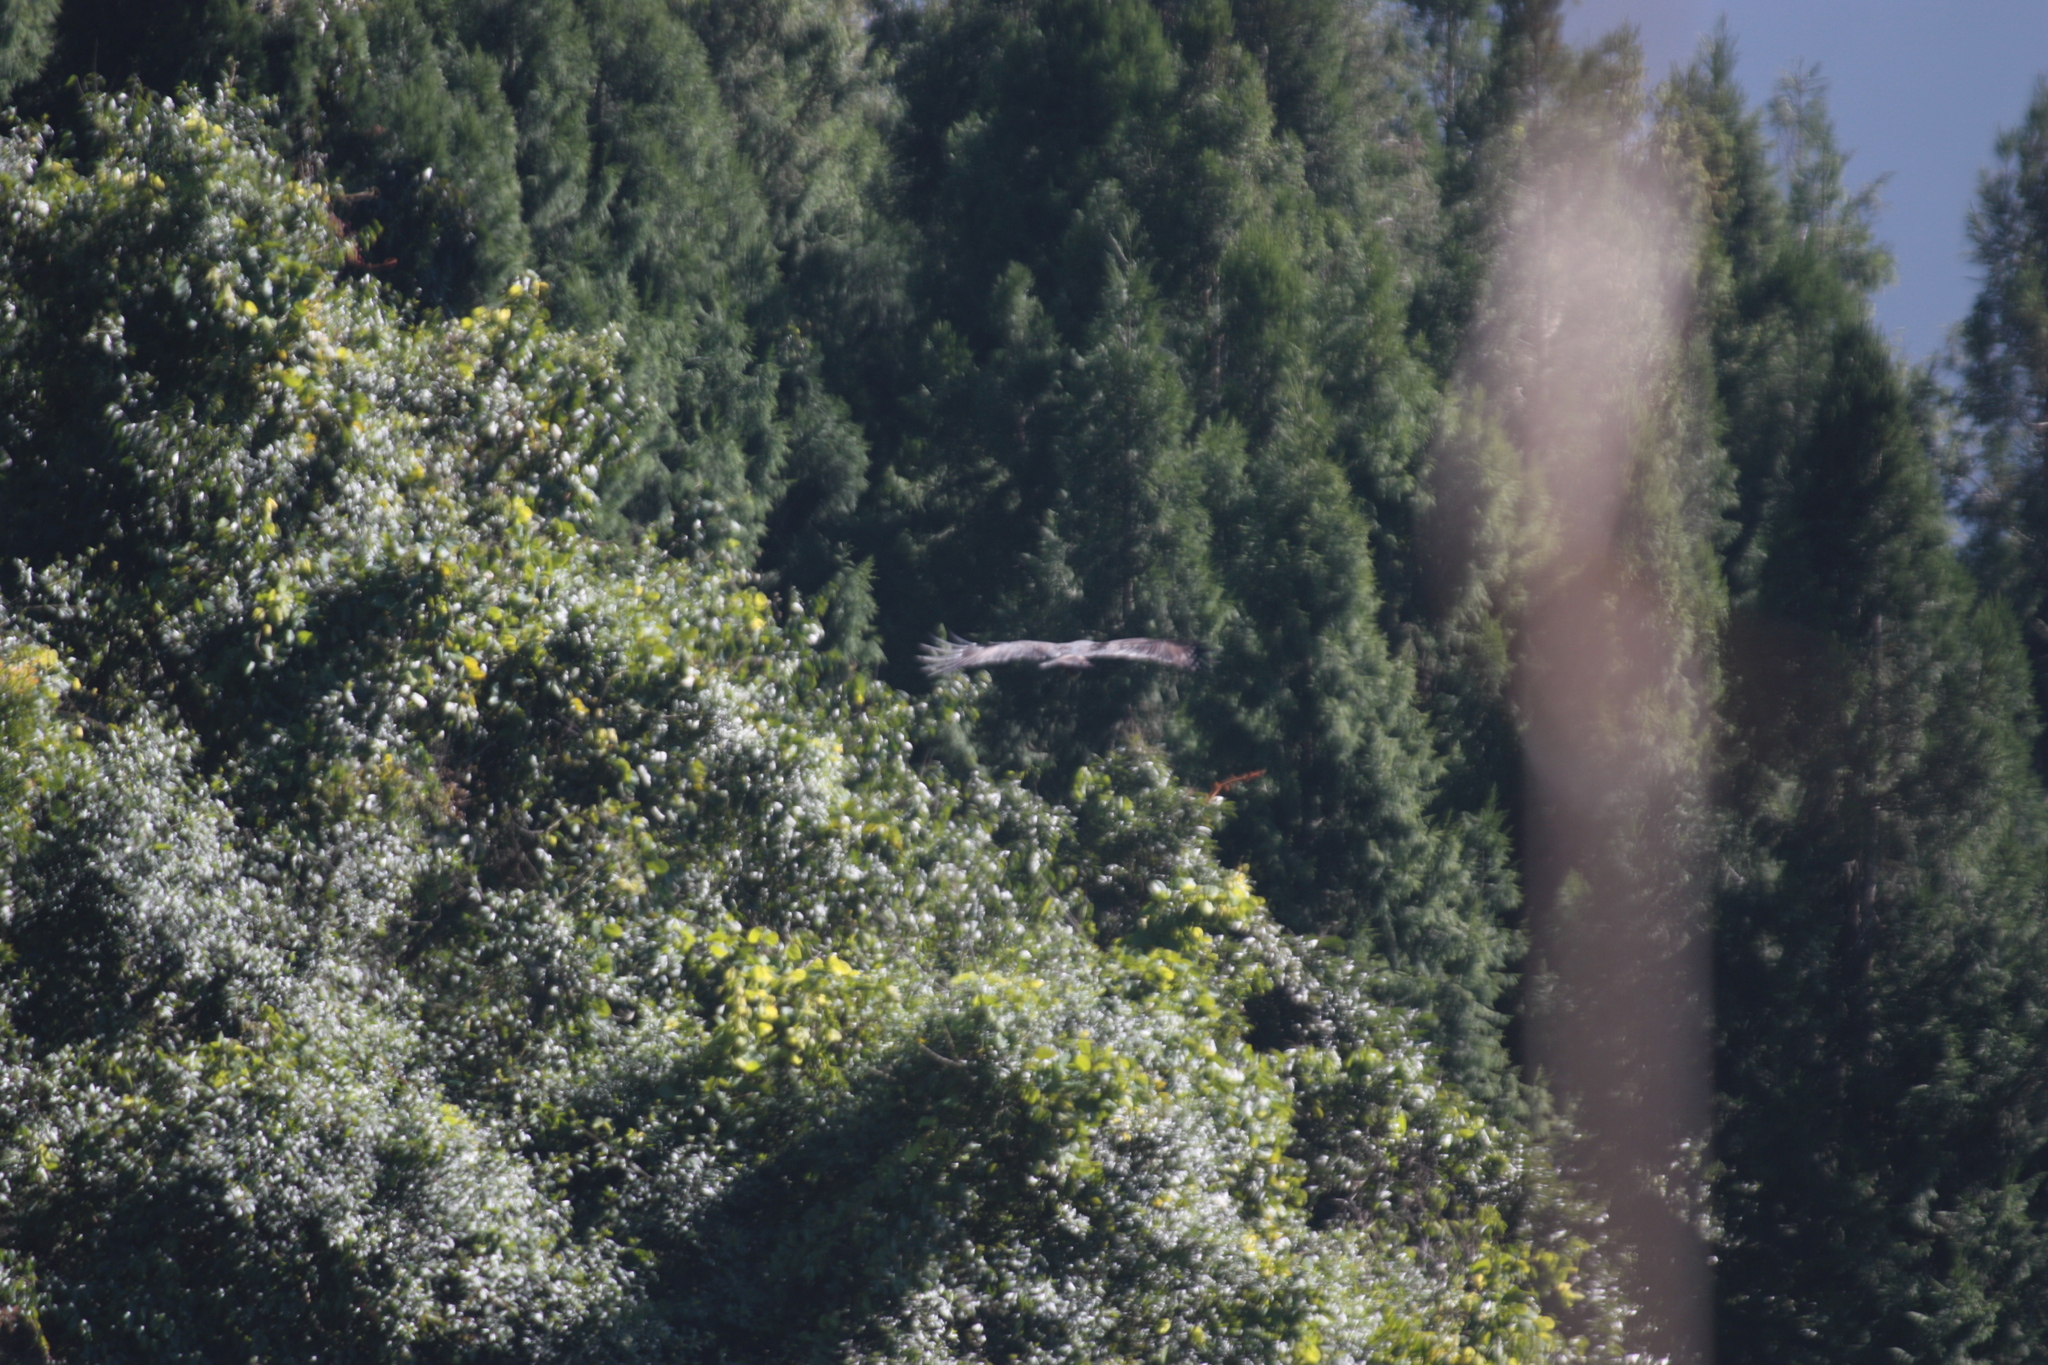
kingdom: Animalia
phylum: Chordata
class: Aves
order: Accipitriformes
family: Accipitridae
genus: Ictinaetus
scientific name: Ictinaetus malayensis
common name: Black eagle
